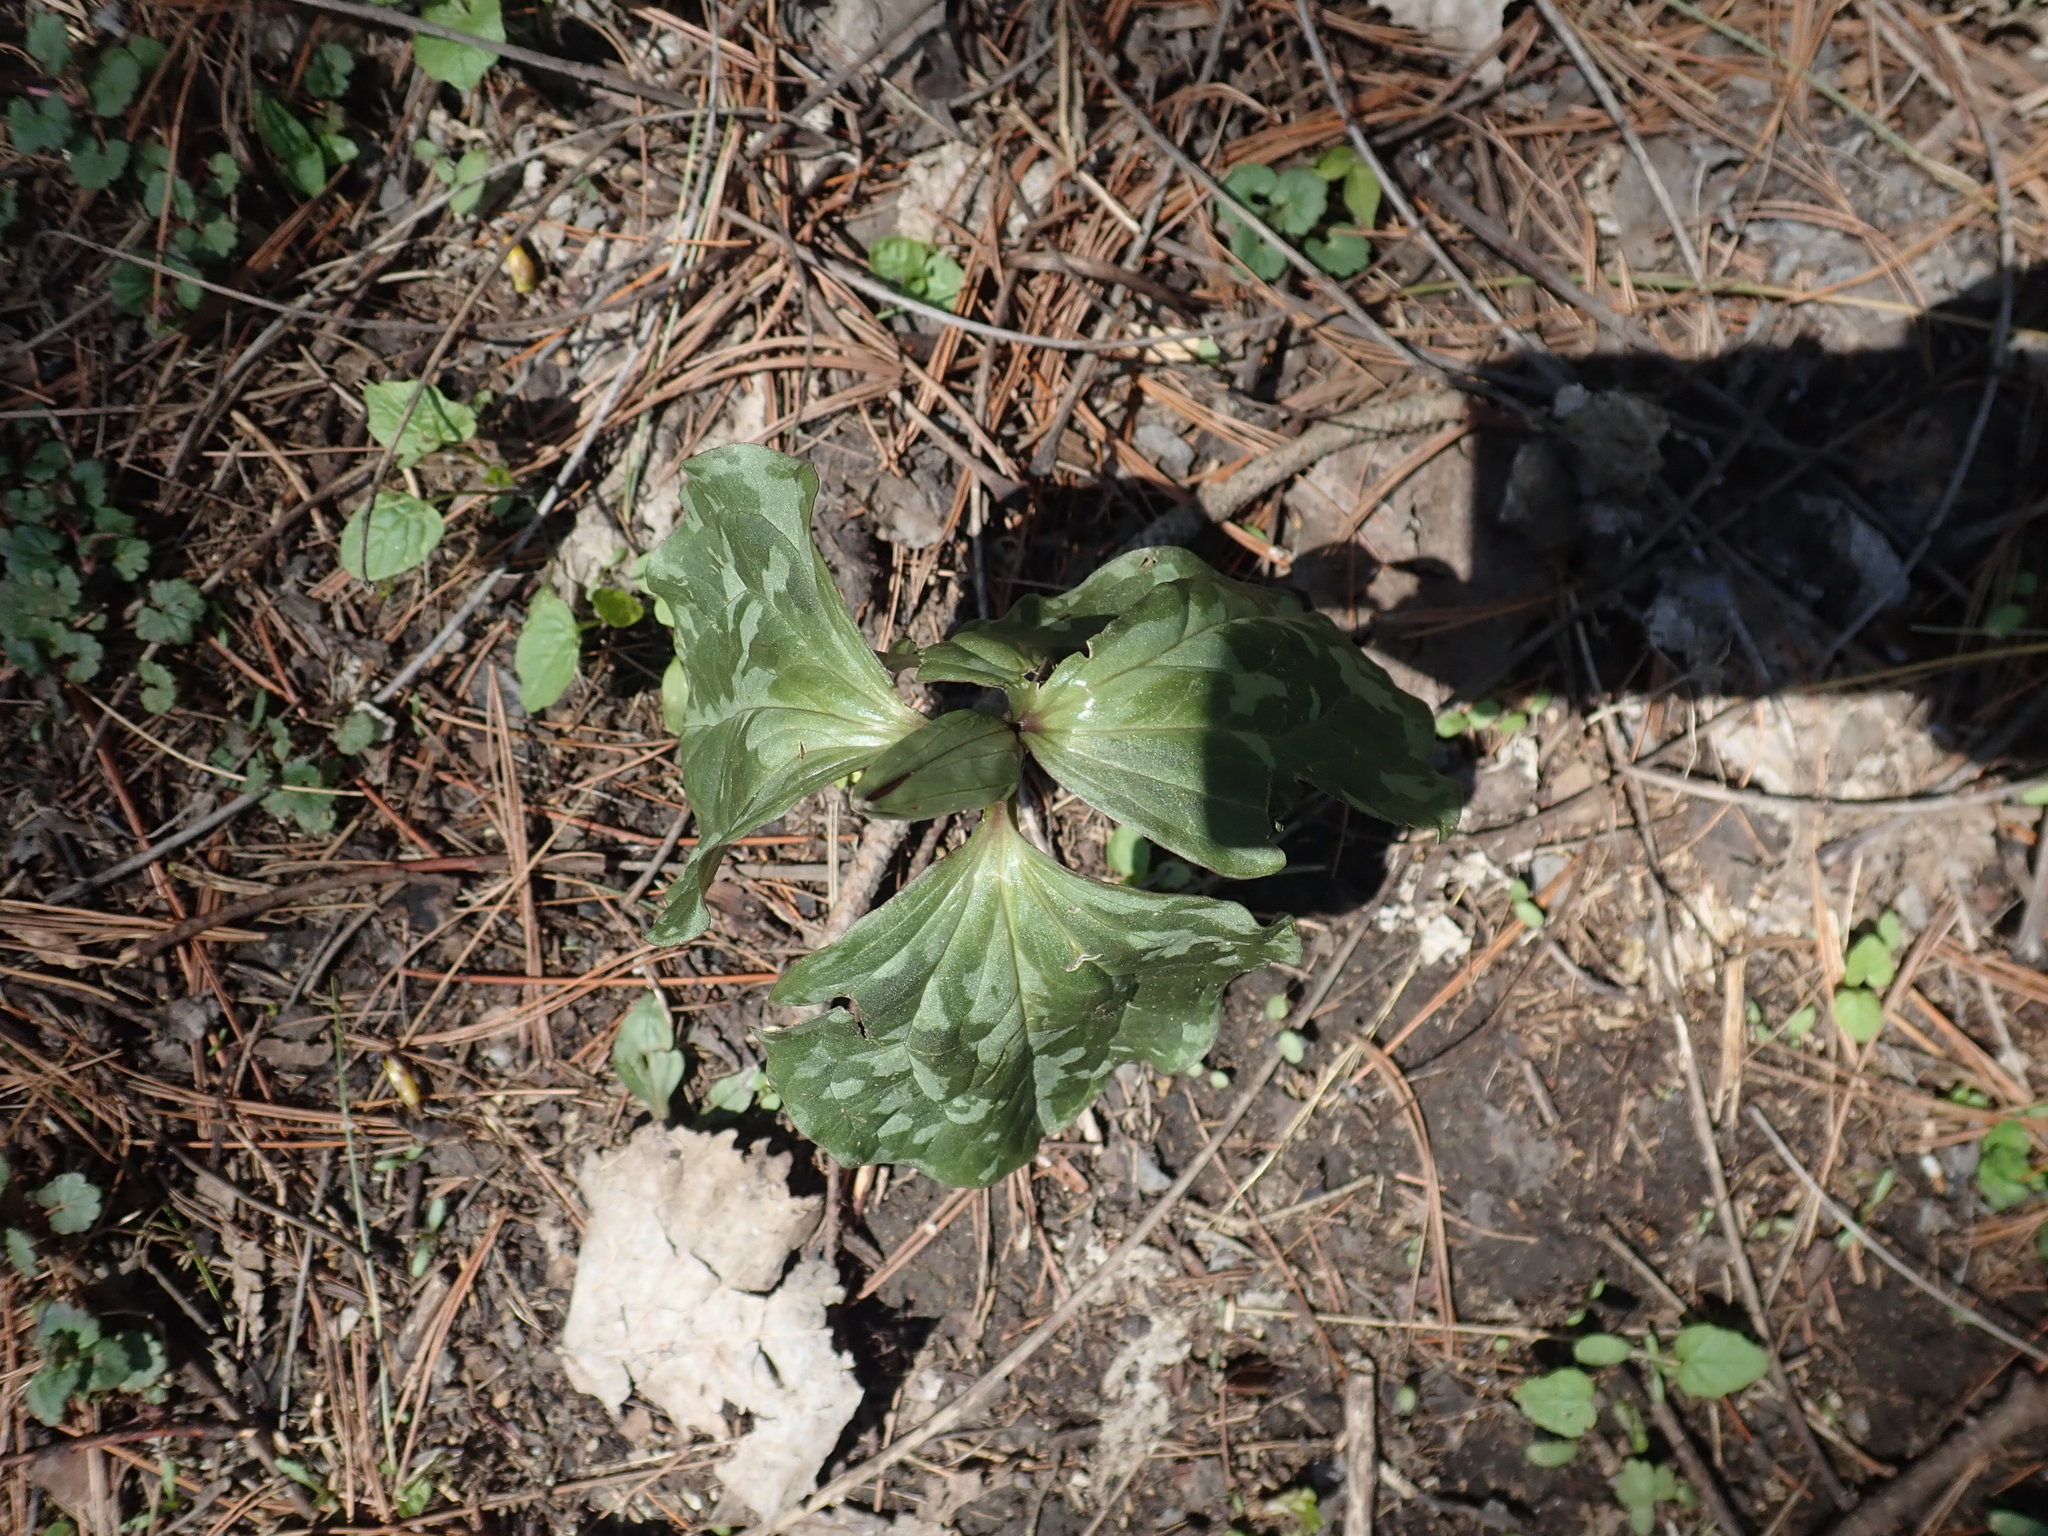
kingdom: Plantae
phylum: Tracheophyta
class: Liliopsida
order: Liliales
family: Melanthiaceae
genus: Trillium
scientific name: Trillium recurvatum
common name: Bloody butcher
